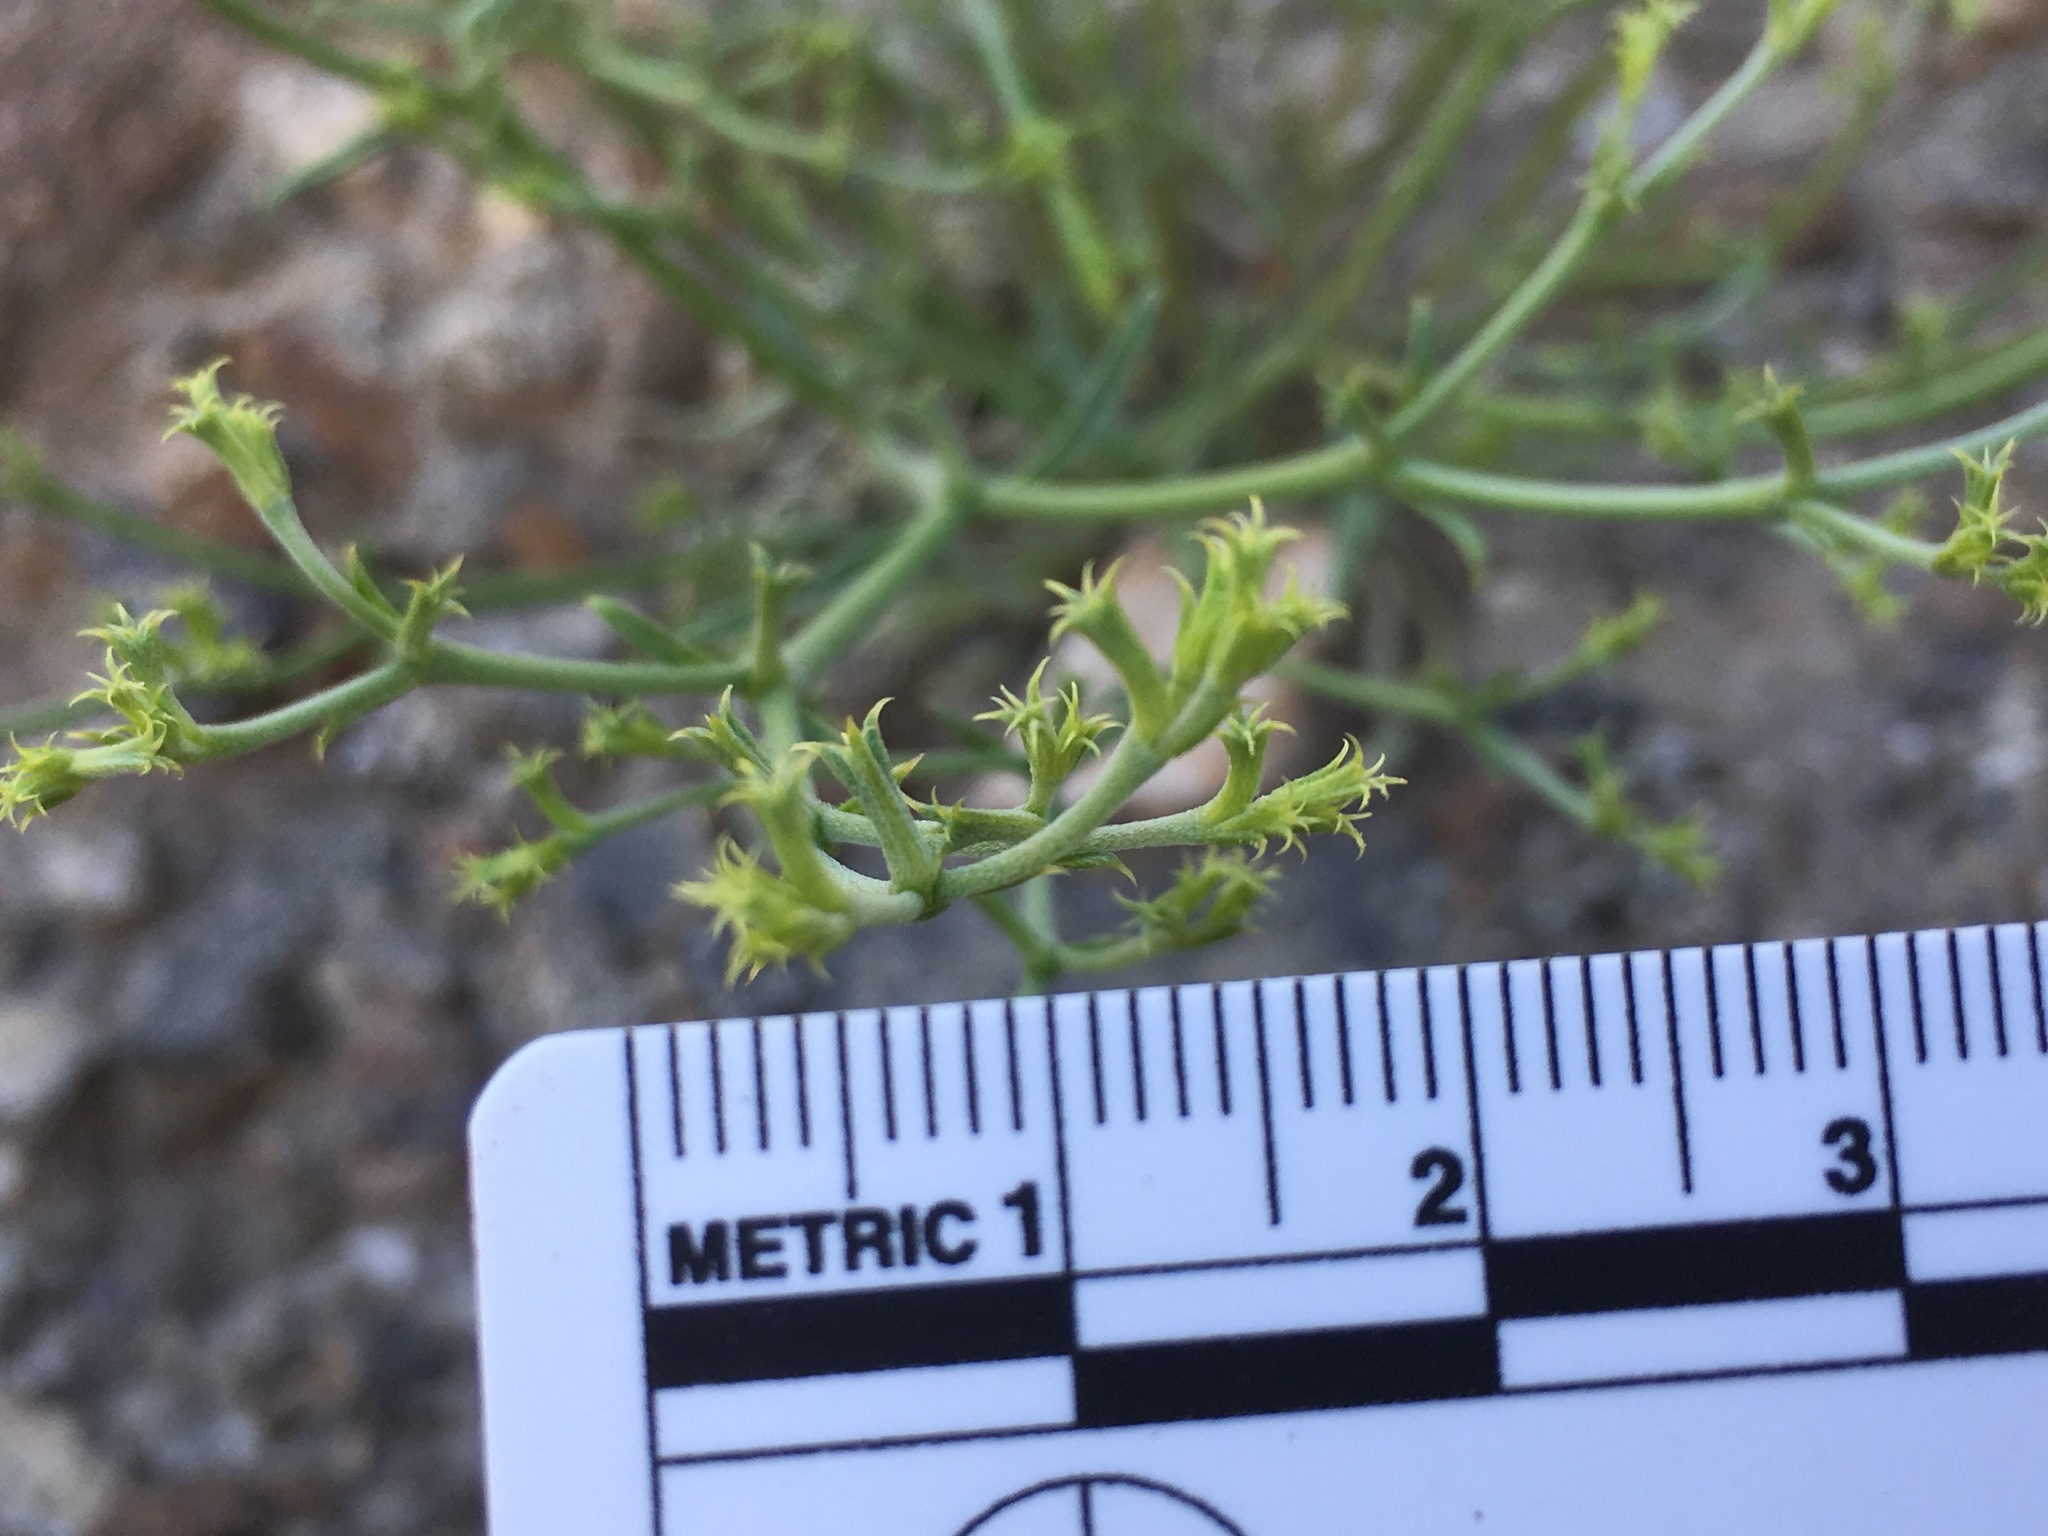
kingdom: Plantae
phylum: Tracheophyta
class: Magnoliopsida
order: Caryophyllales
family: Polygonaceae
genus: Chorizanthe
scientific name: Chorizanthe brevicornu
